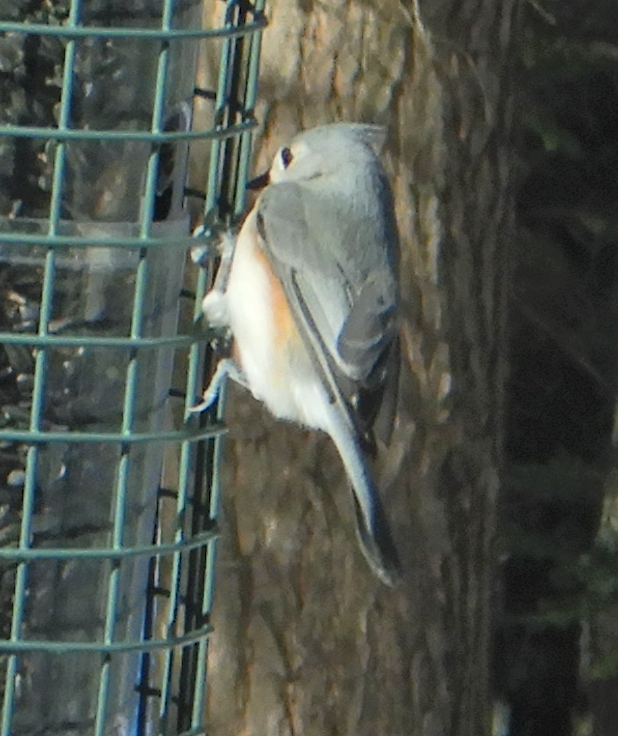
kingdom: Animalia
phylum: Chordata
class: Aves
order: Passeriformes
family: Paridae
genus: Baeolophus
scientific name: Baeolophus bicolor
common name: Tufted titmouse
